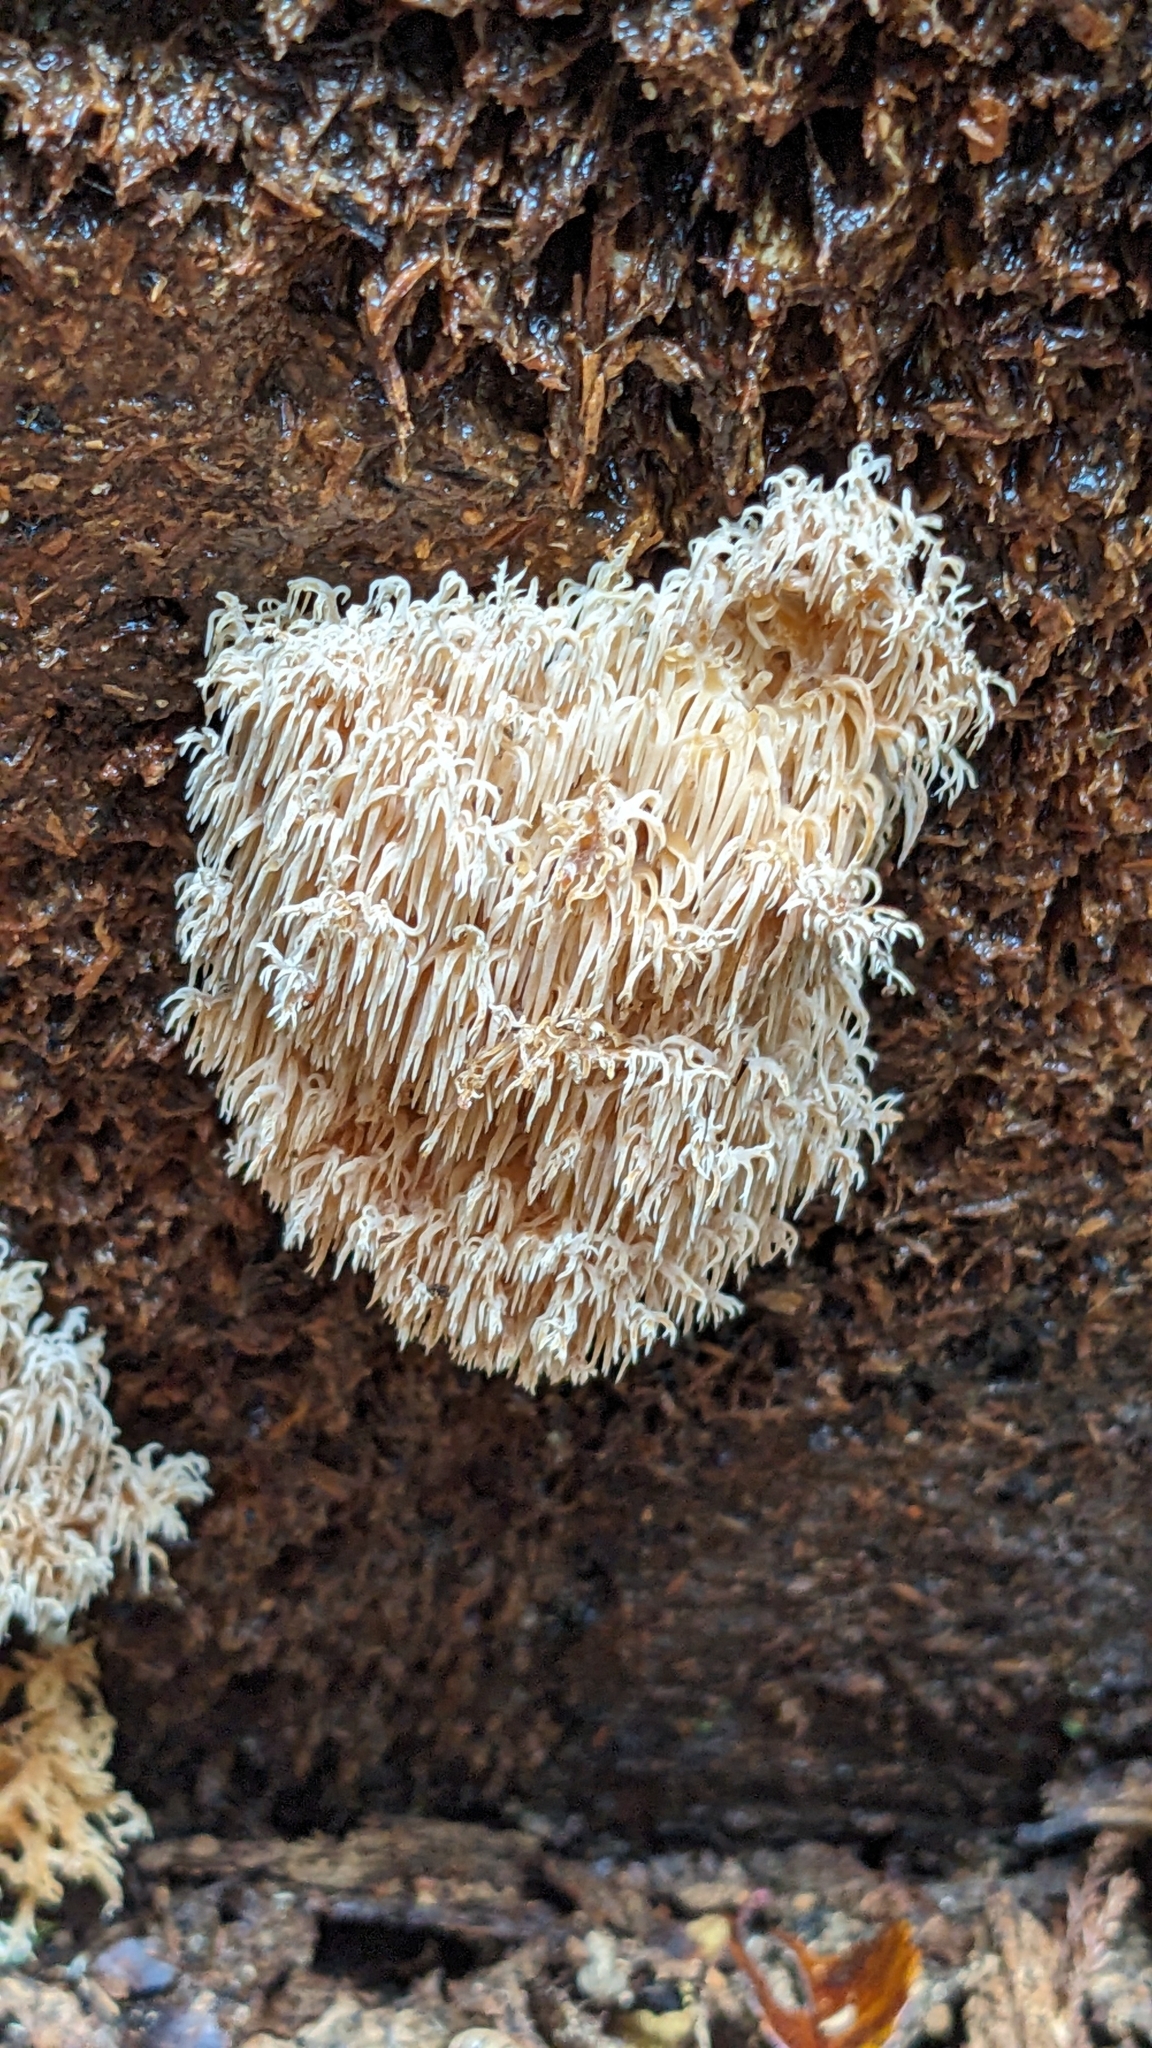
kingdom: Fungi
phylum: Basidiomycota
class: Agaricomycetes
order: Russulales
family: Hericiaceae
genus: Hericium
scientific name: Hericium novae-zealandiae
